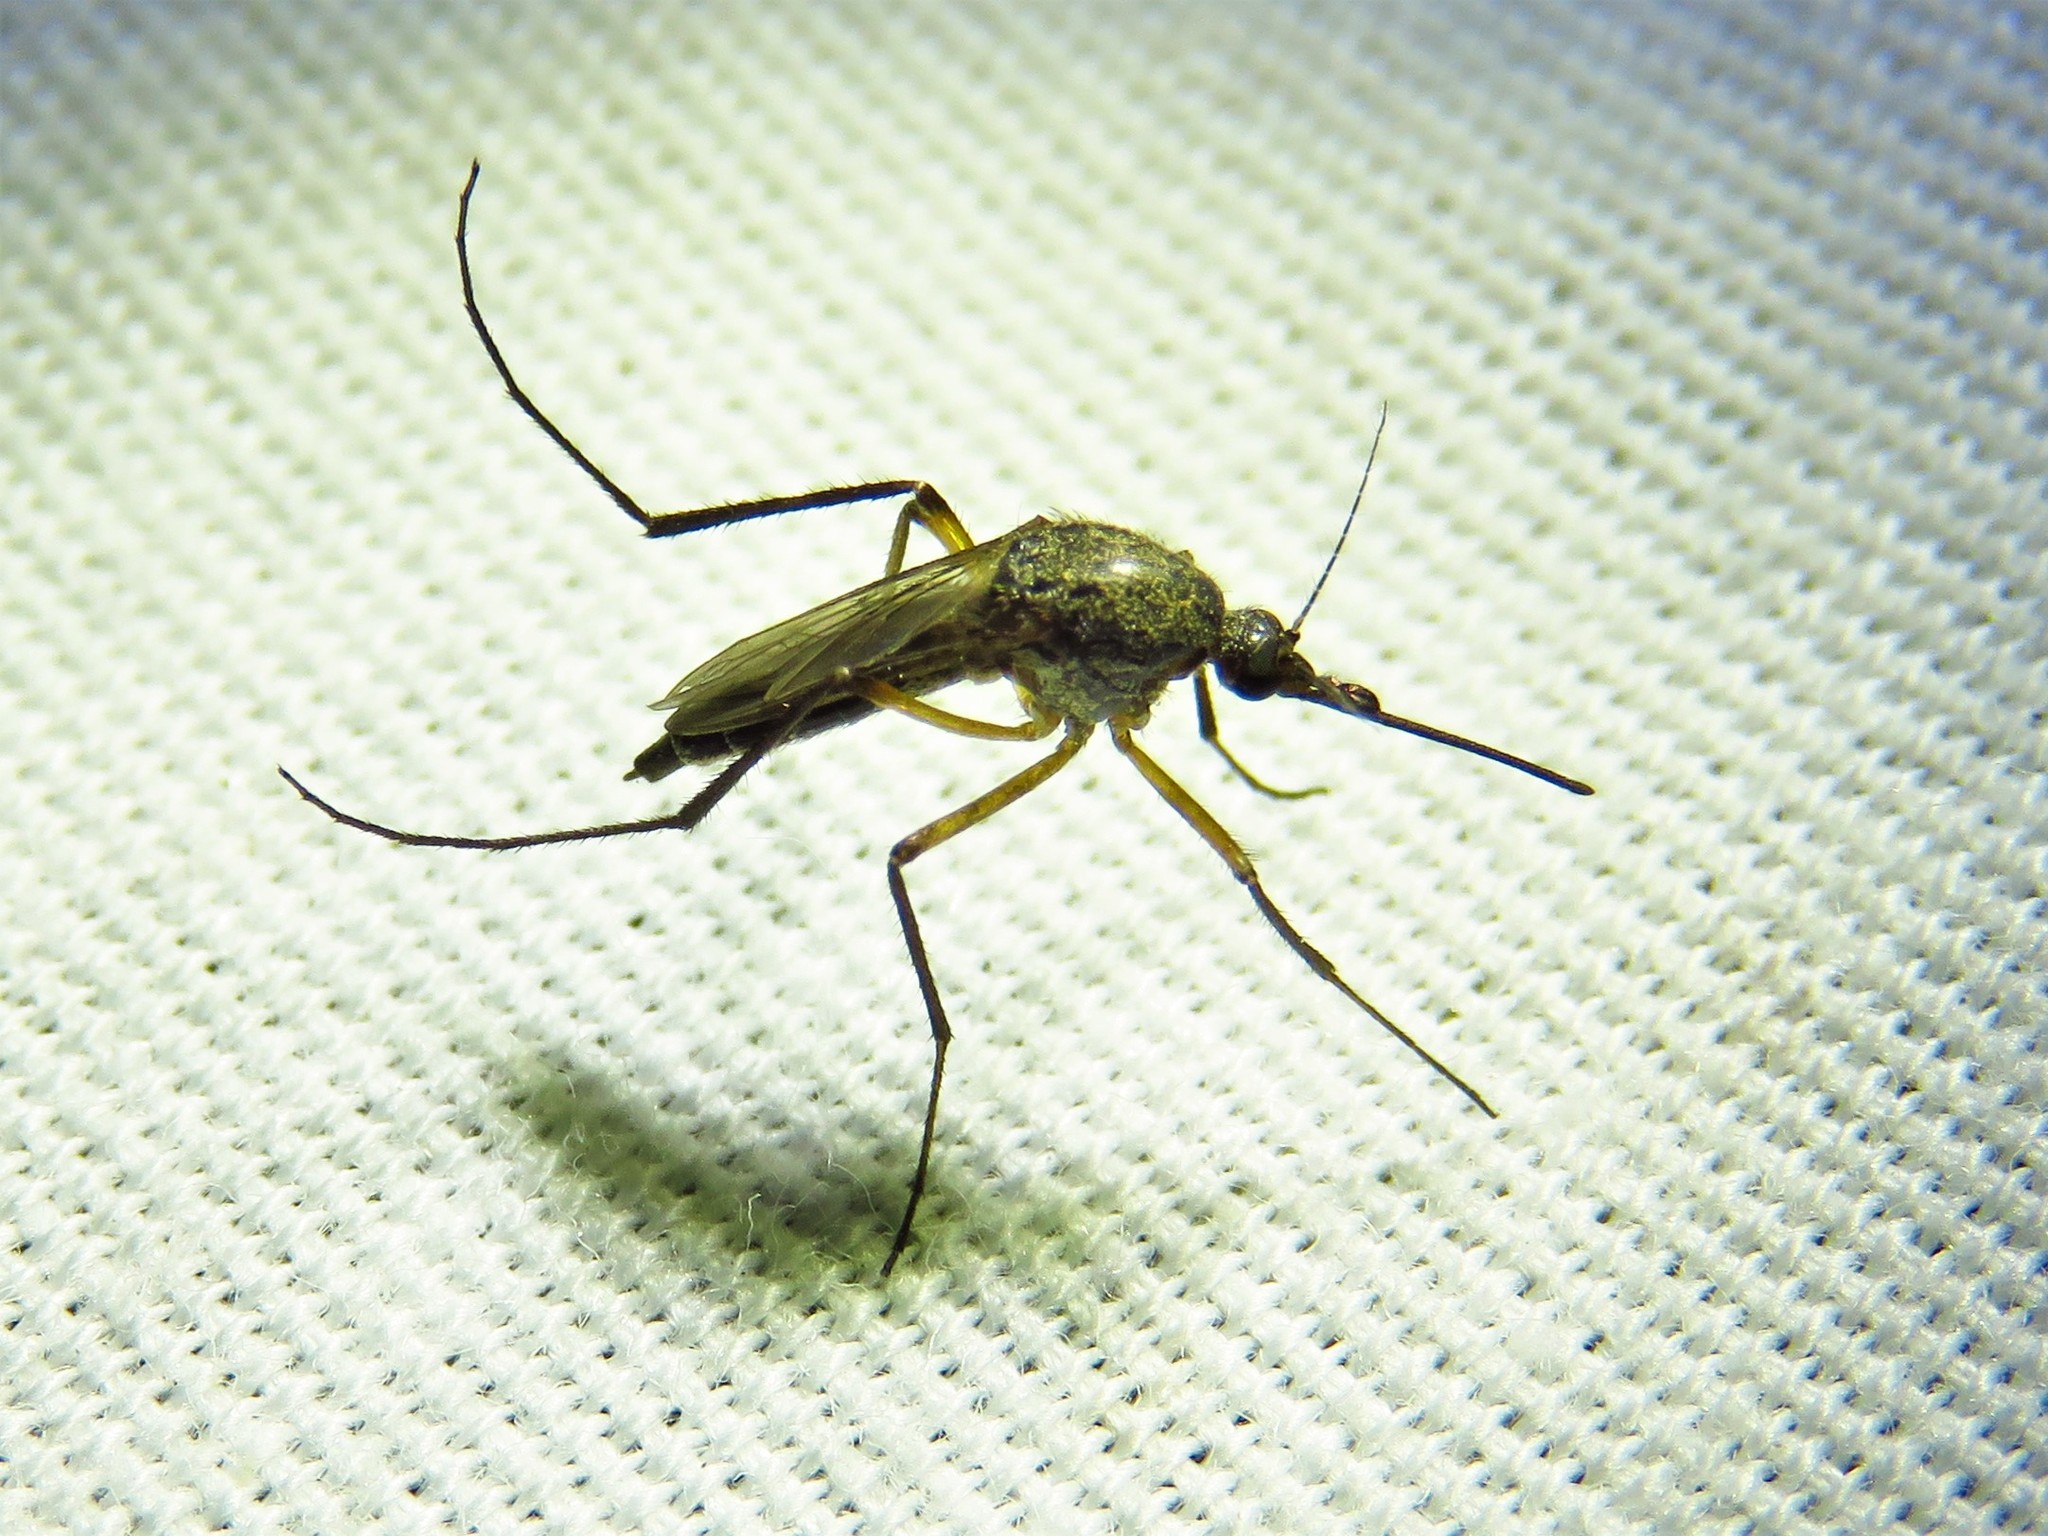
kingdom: Animalia
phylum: Arthropoda
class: Insecta
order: Diptera
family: Culicidae
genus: Psorophora
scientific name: Psorophora cyanescens
